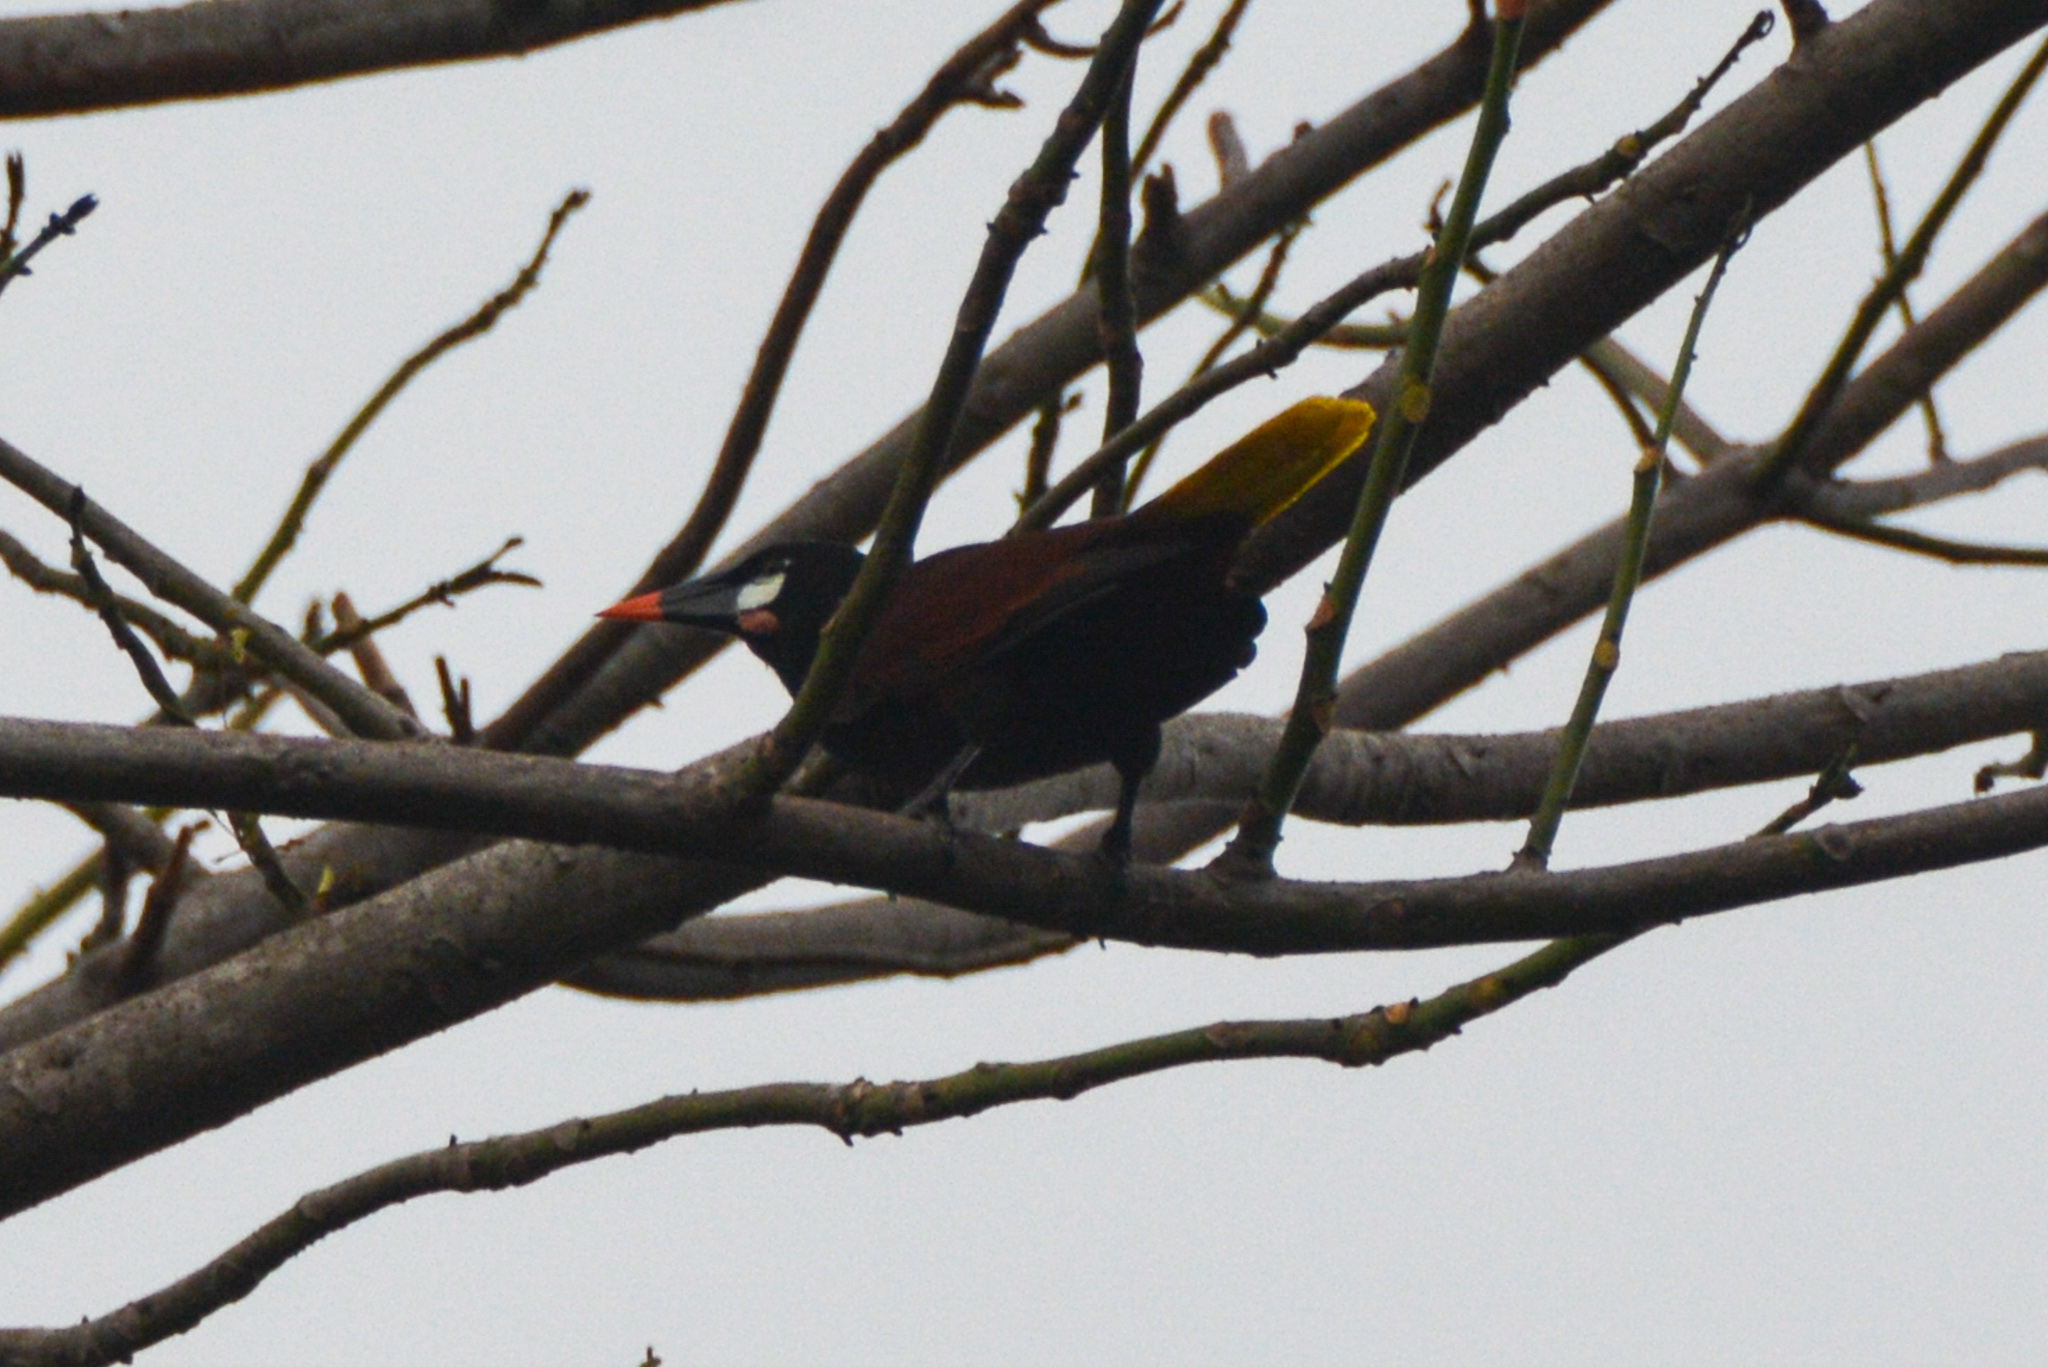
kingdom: Animalia
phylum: Chordata
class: Aves
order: Passeriformes
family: Icteridae
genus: Psarocolius
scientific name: Psarocolius montezuma
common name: Montezuma oropendola
